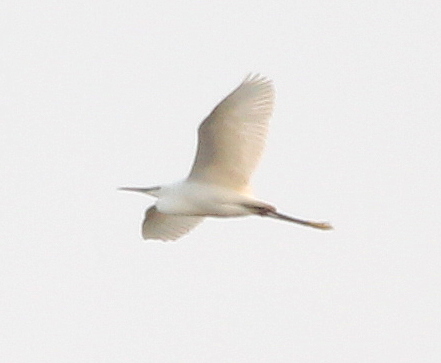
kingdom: Animalia
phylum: Chordata
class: Aves
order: Pelecaniformes
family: Ardeidae
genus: Egretta
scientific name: Egretta garzetta
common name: Little egret
